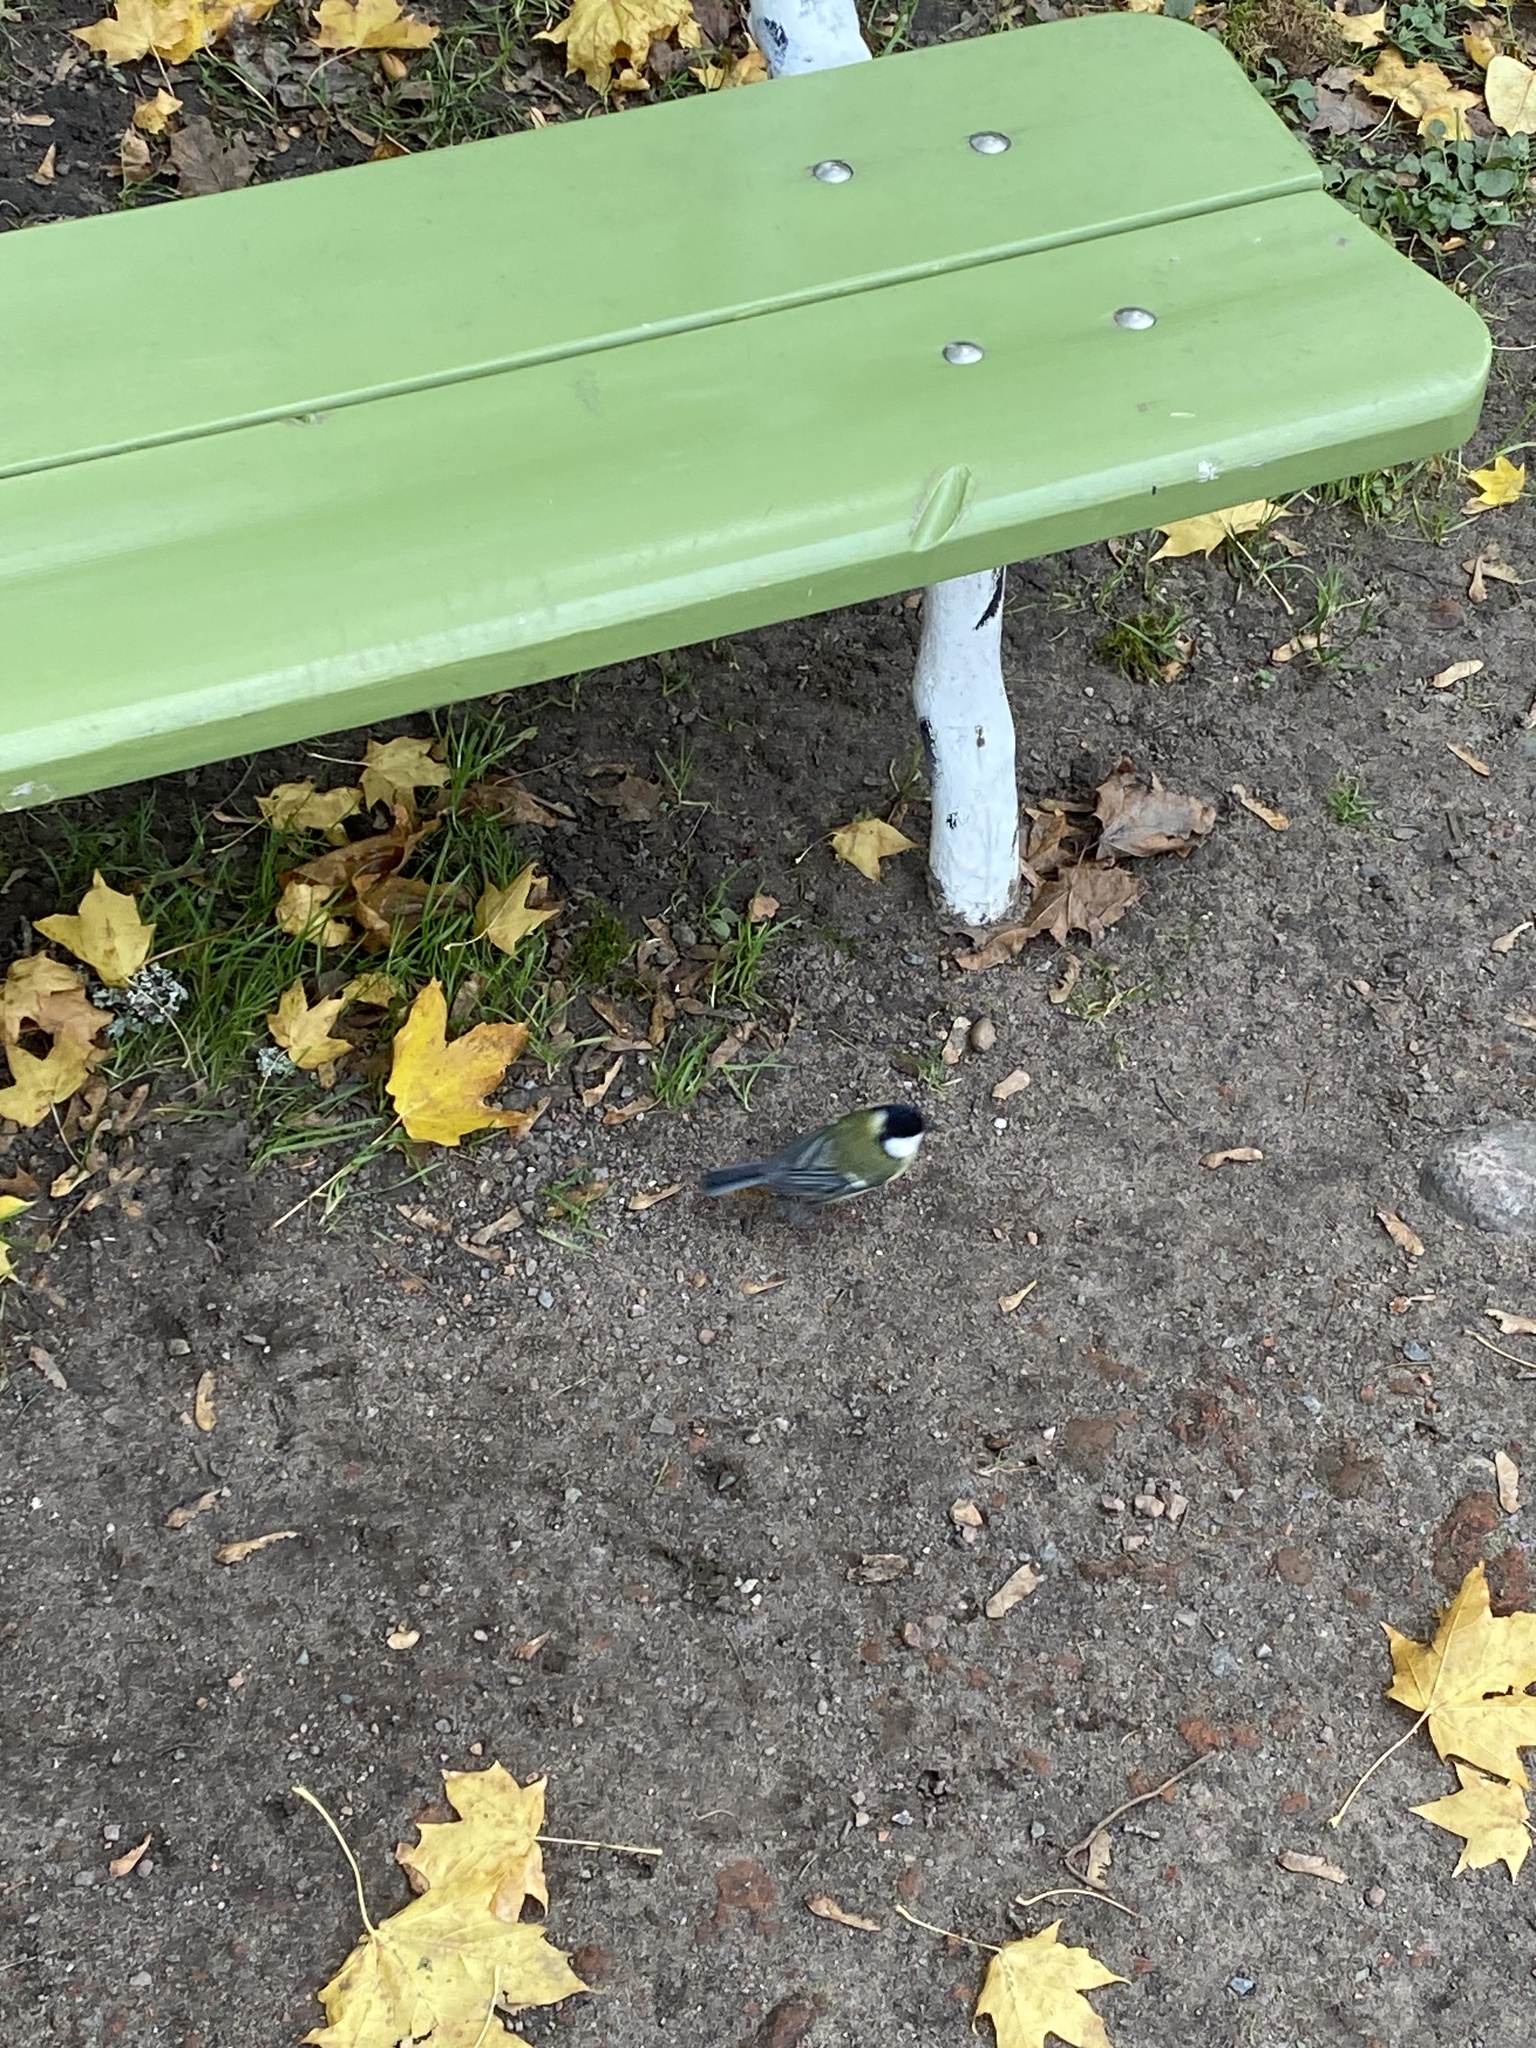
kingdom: Animalia
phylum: Chordata
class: Aves
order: Passeriformes
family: Paridae
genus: Parus
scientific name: Parus major
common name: Great tit
